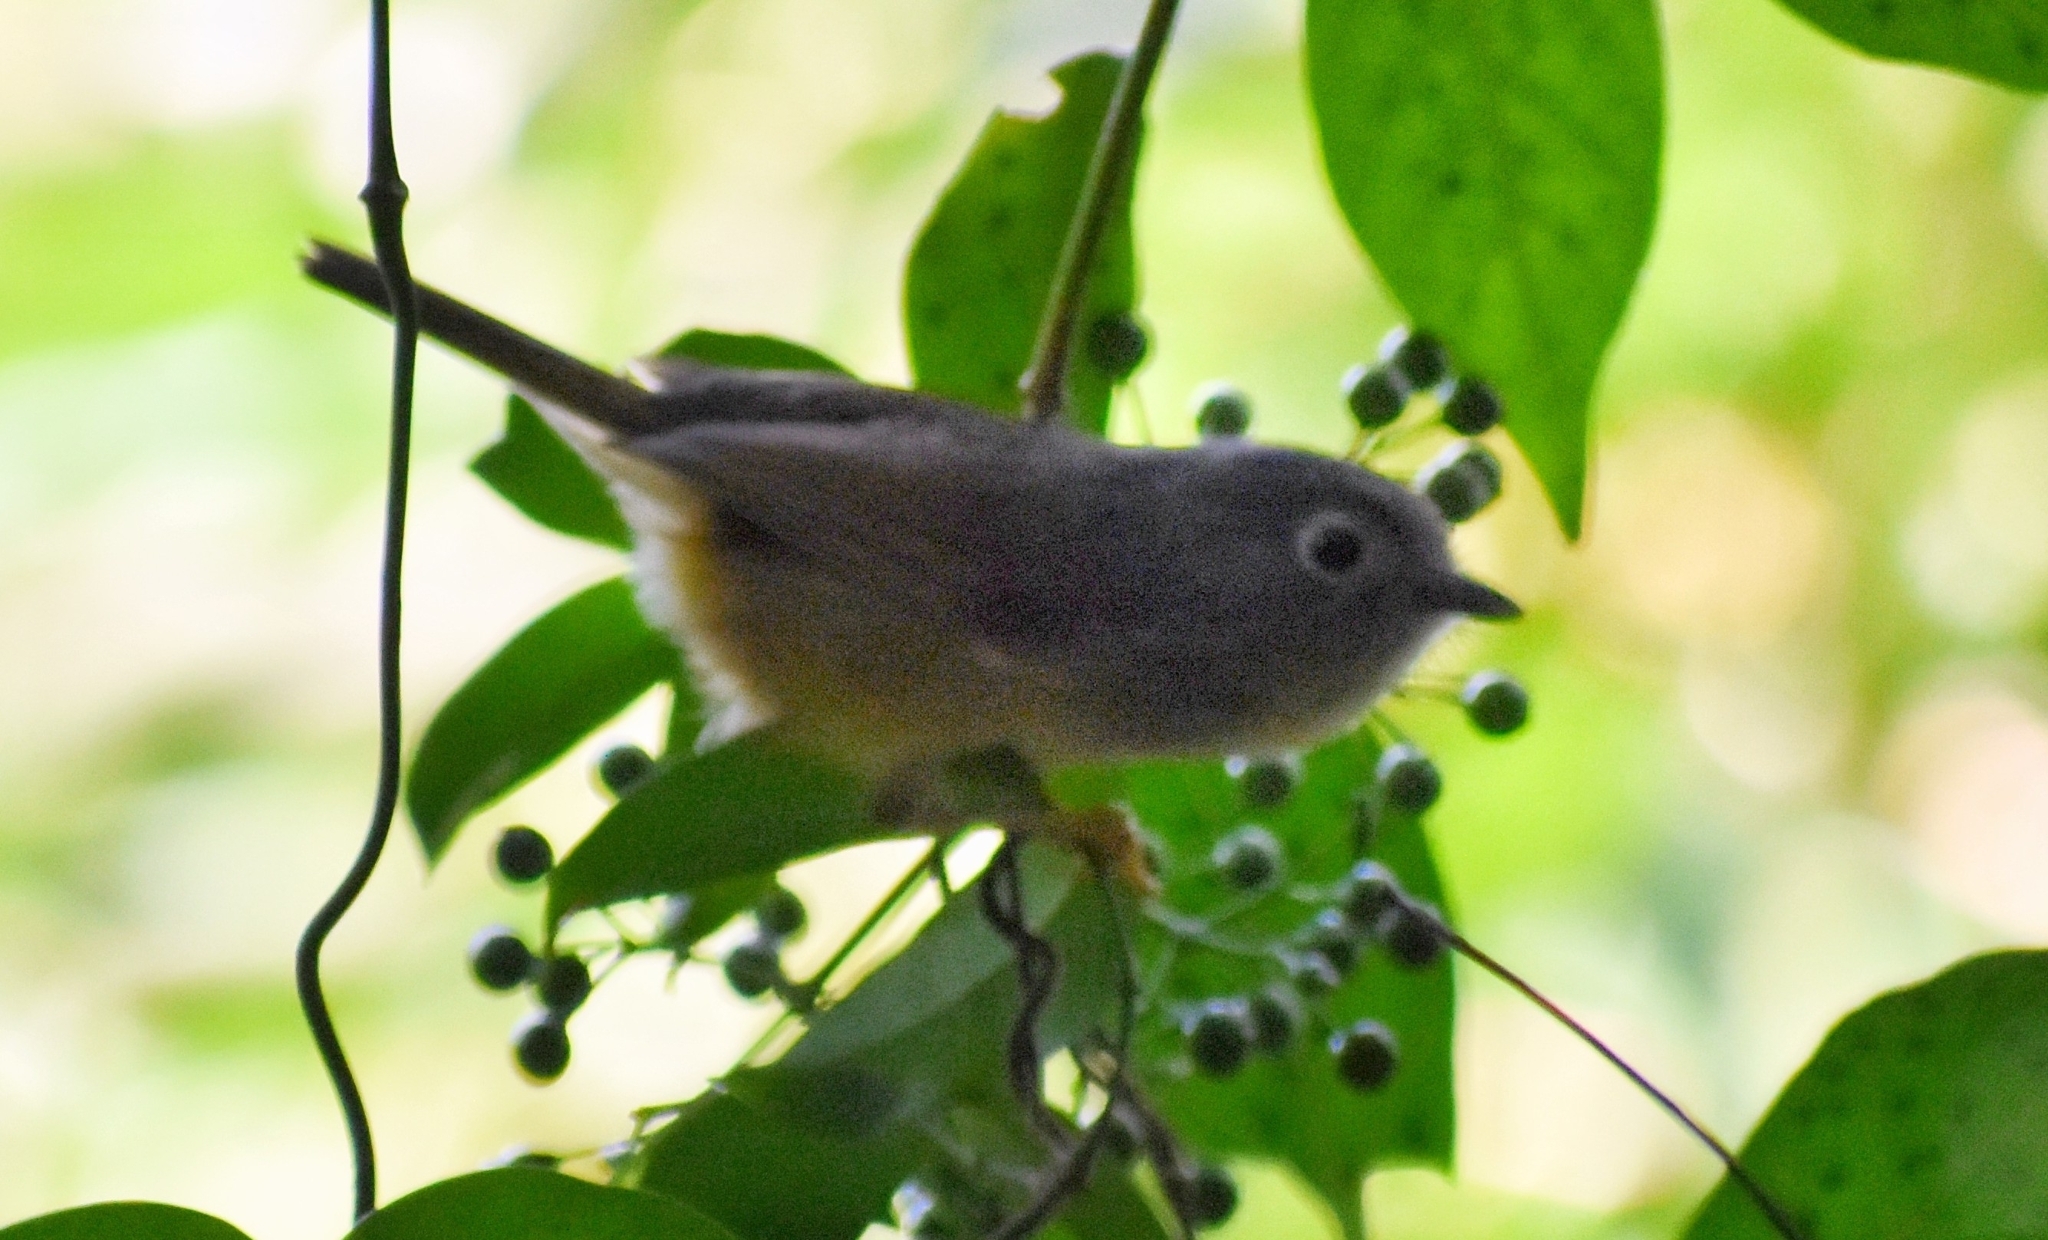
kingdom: Animalia
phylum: Chordata
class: Aves
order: Passeriformes
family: Pellorneidae
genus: Alcippe
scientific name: Alcippe hueti
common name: Huet's fulvetta
